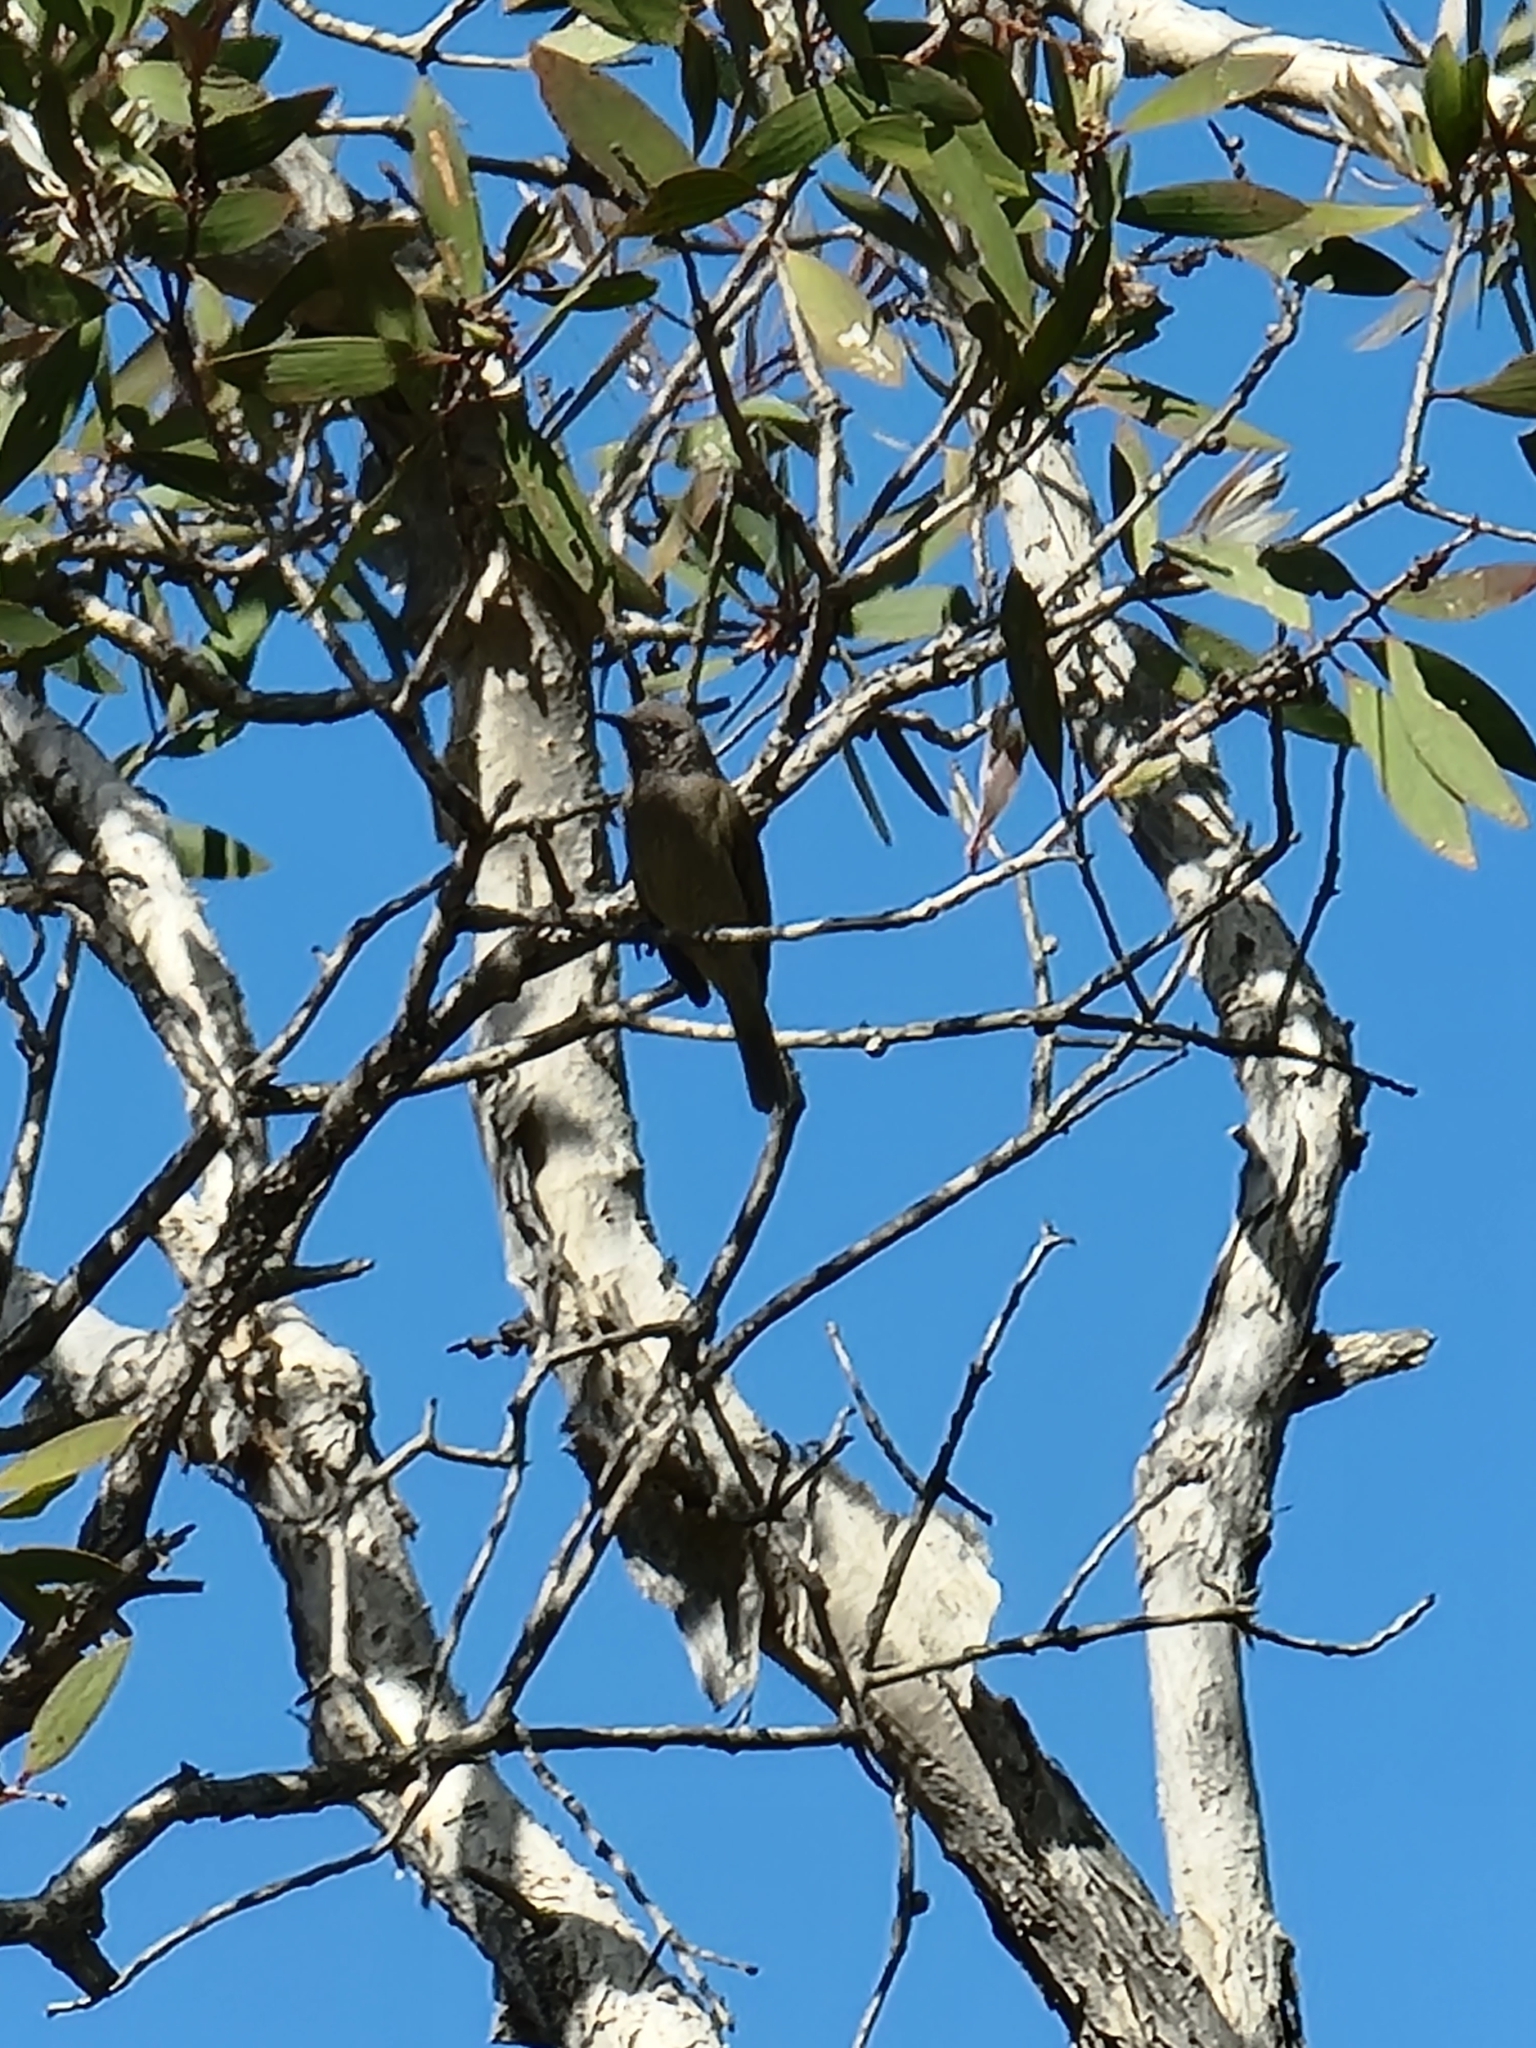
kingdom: Animalia
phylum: Chordata
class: Aves
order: Passeriformes
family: Meliphagidae
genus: Lichmera
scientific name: Lichmera indistincta
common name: Brown honeyeater
